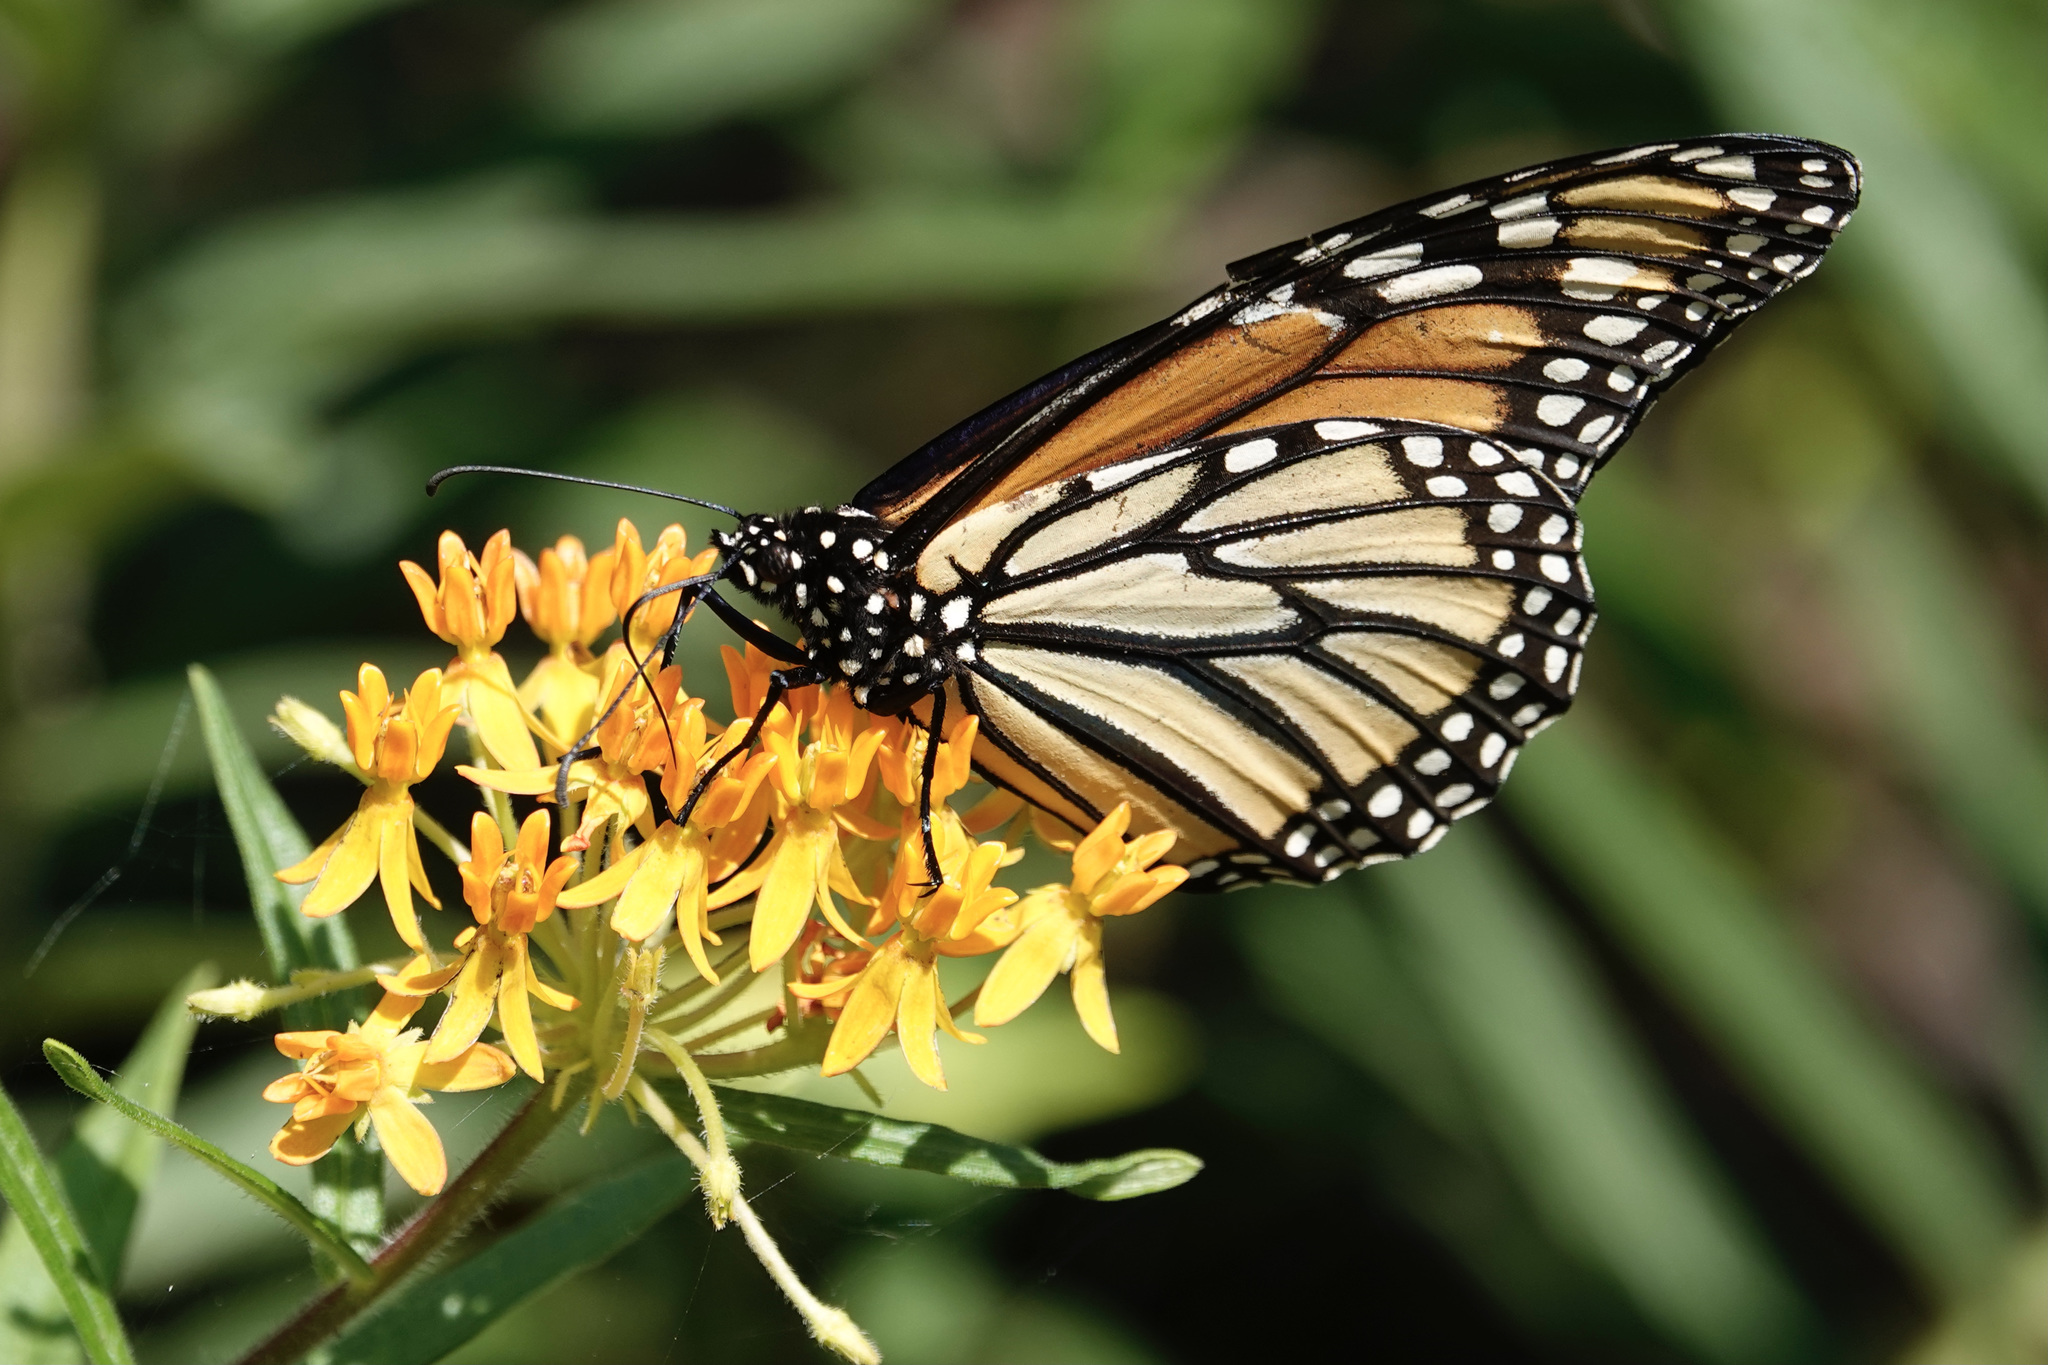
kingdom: Animalia
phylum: Arthropoda
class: Insecta
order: Lepidoptera
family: Nymphalidae
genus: Danaus
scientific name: Danaus plexippus
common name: Monarch
